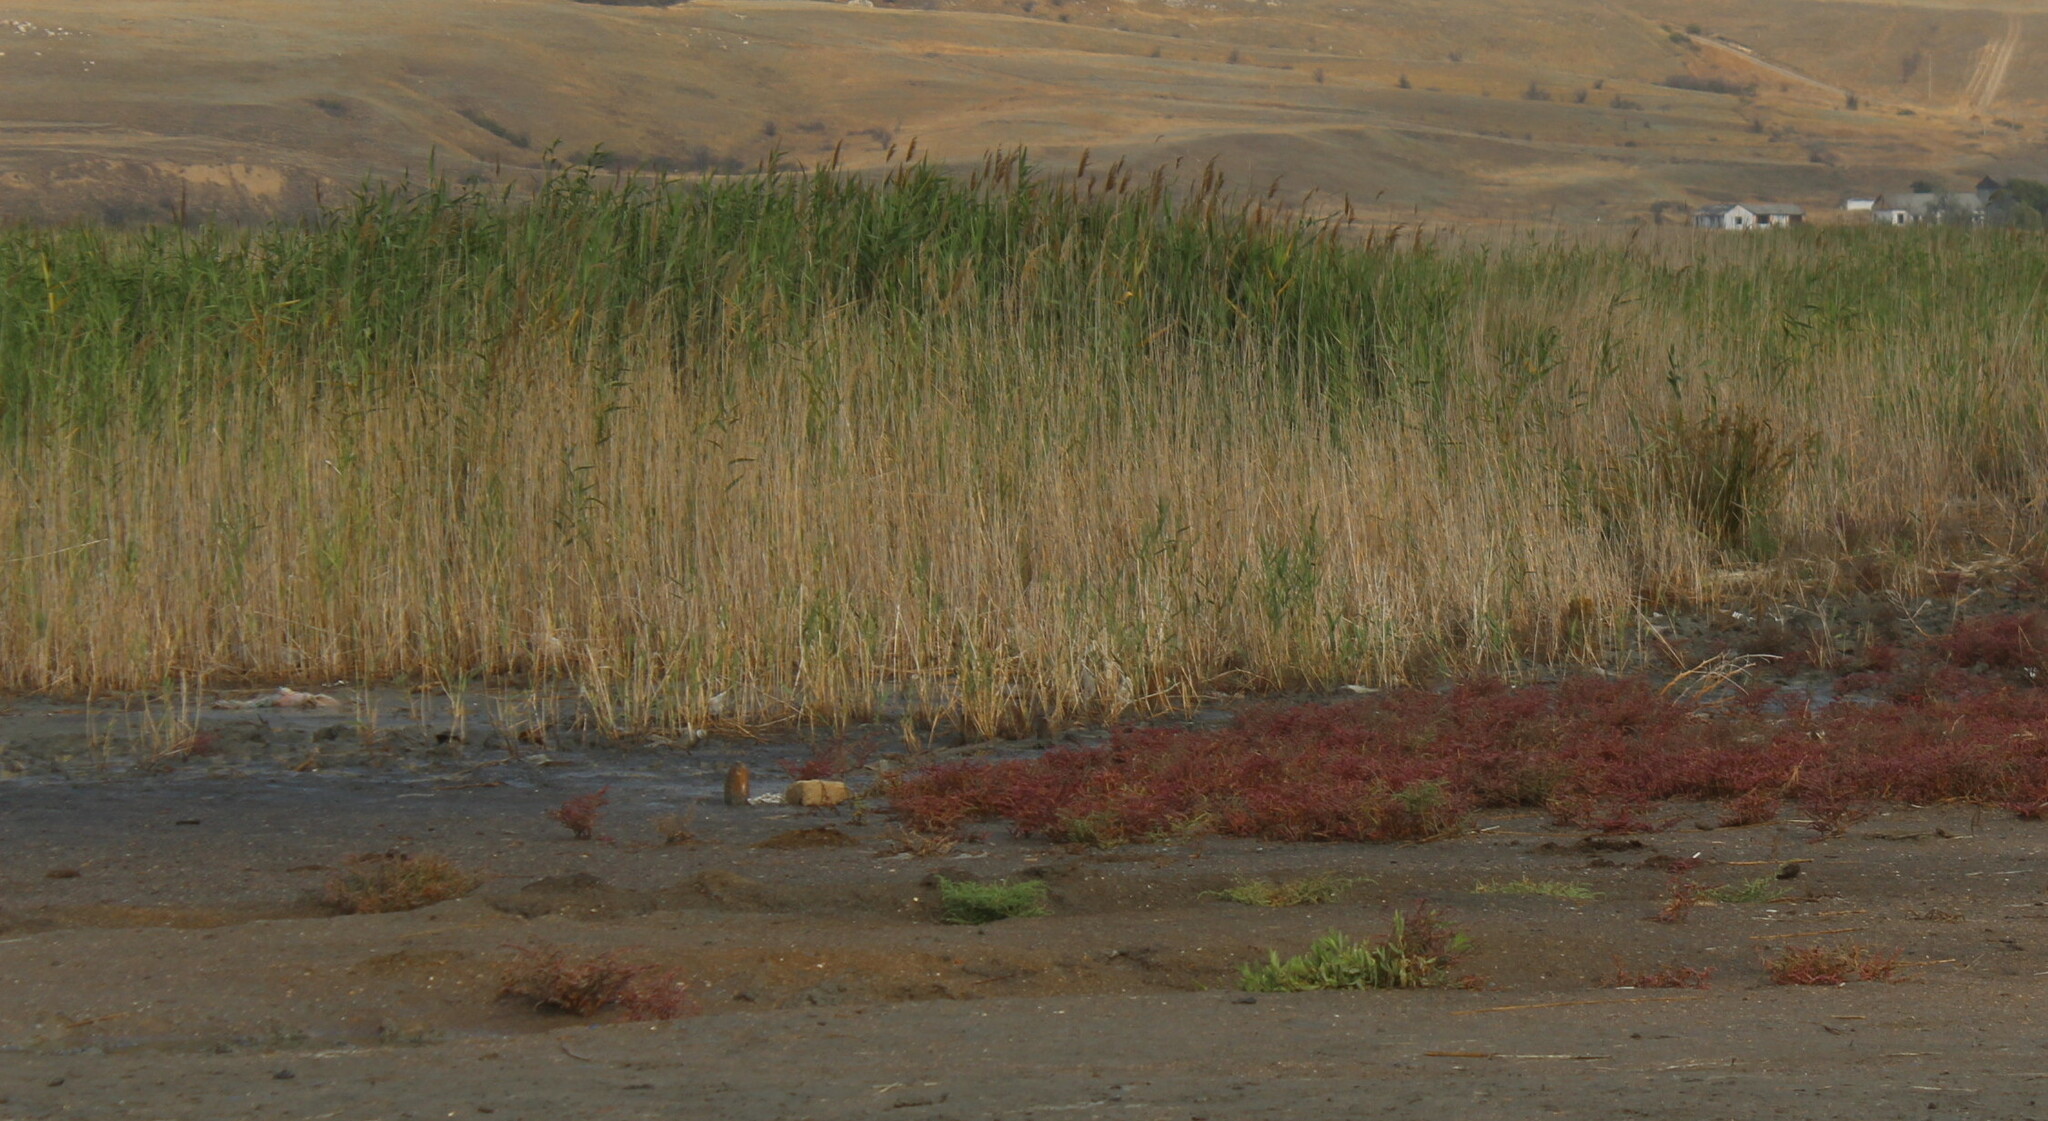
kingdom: Plantae
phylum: Tracheophyta
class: Liliopsida
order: Poales
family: Poaceae
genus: Phragmites
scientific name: Phragmites australis
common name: Common reed
